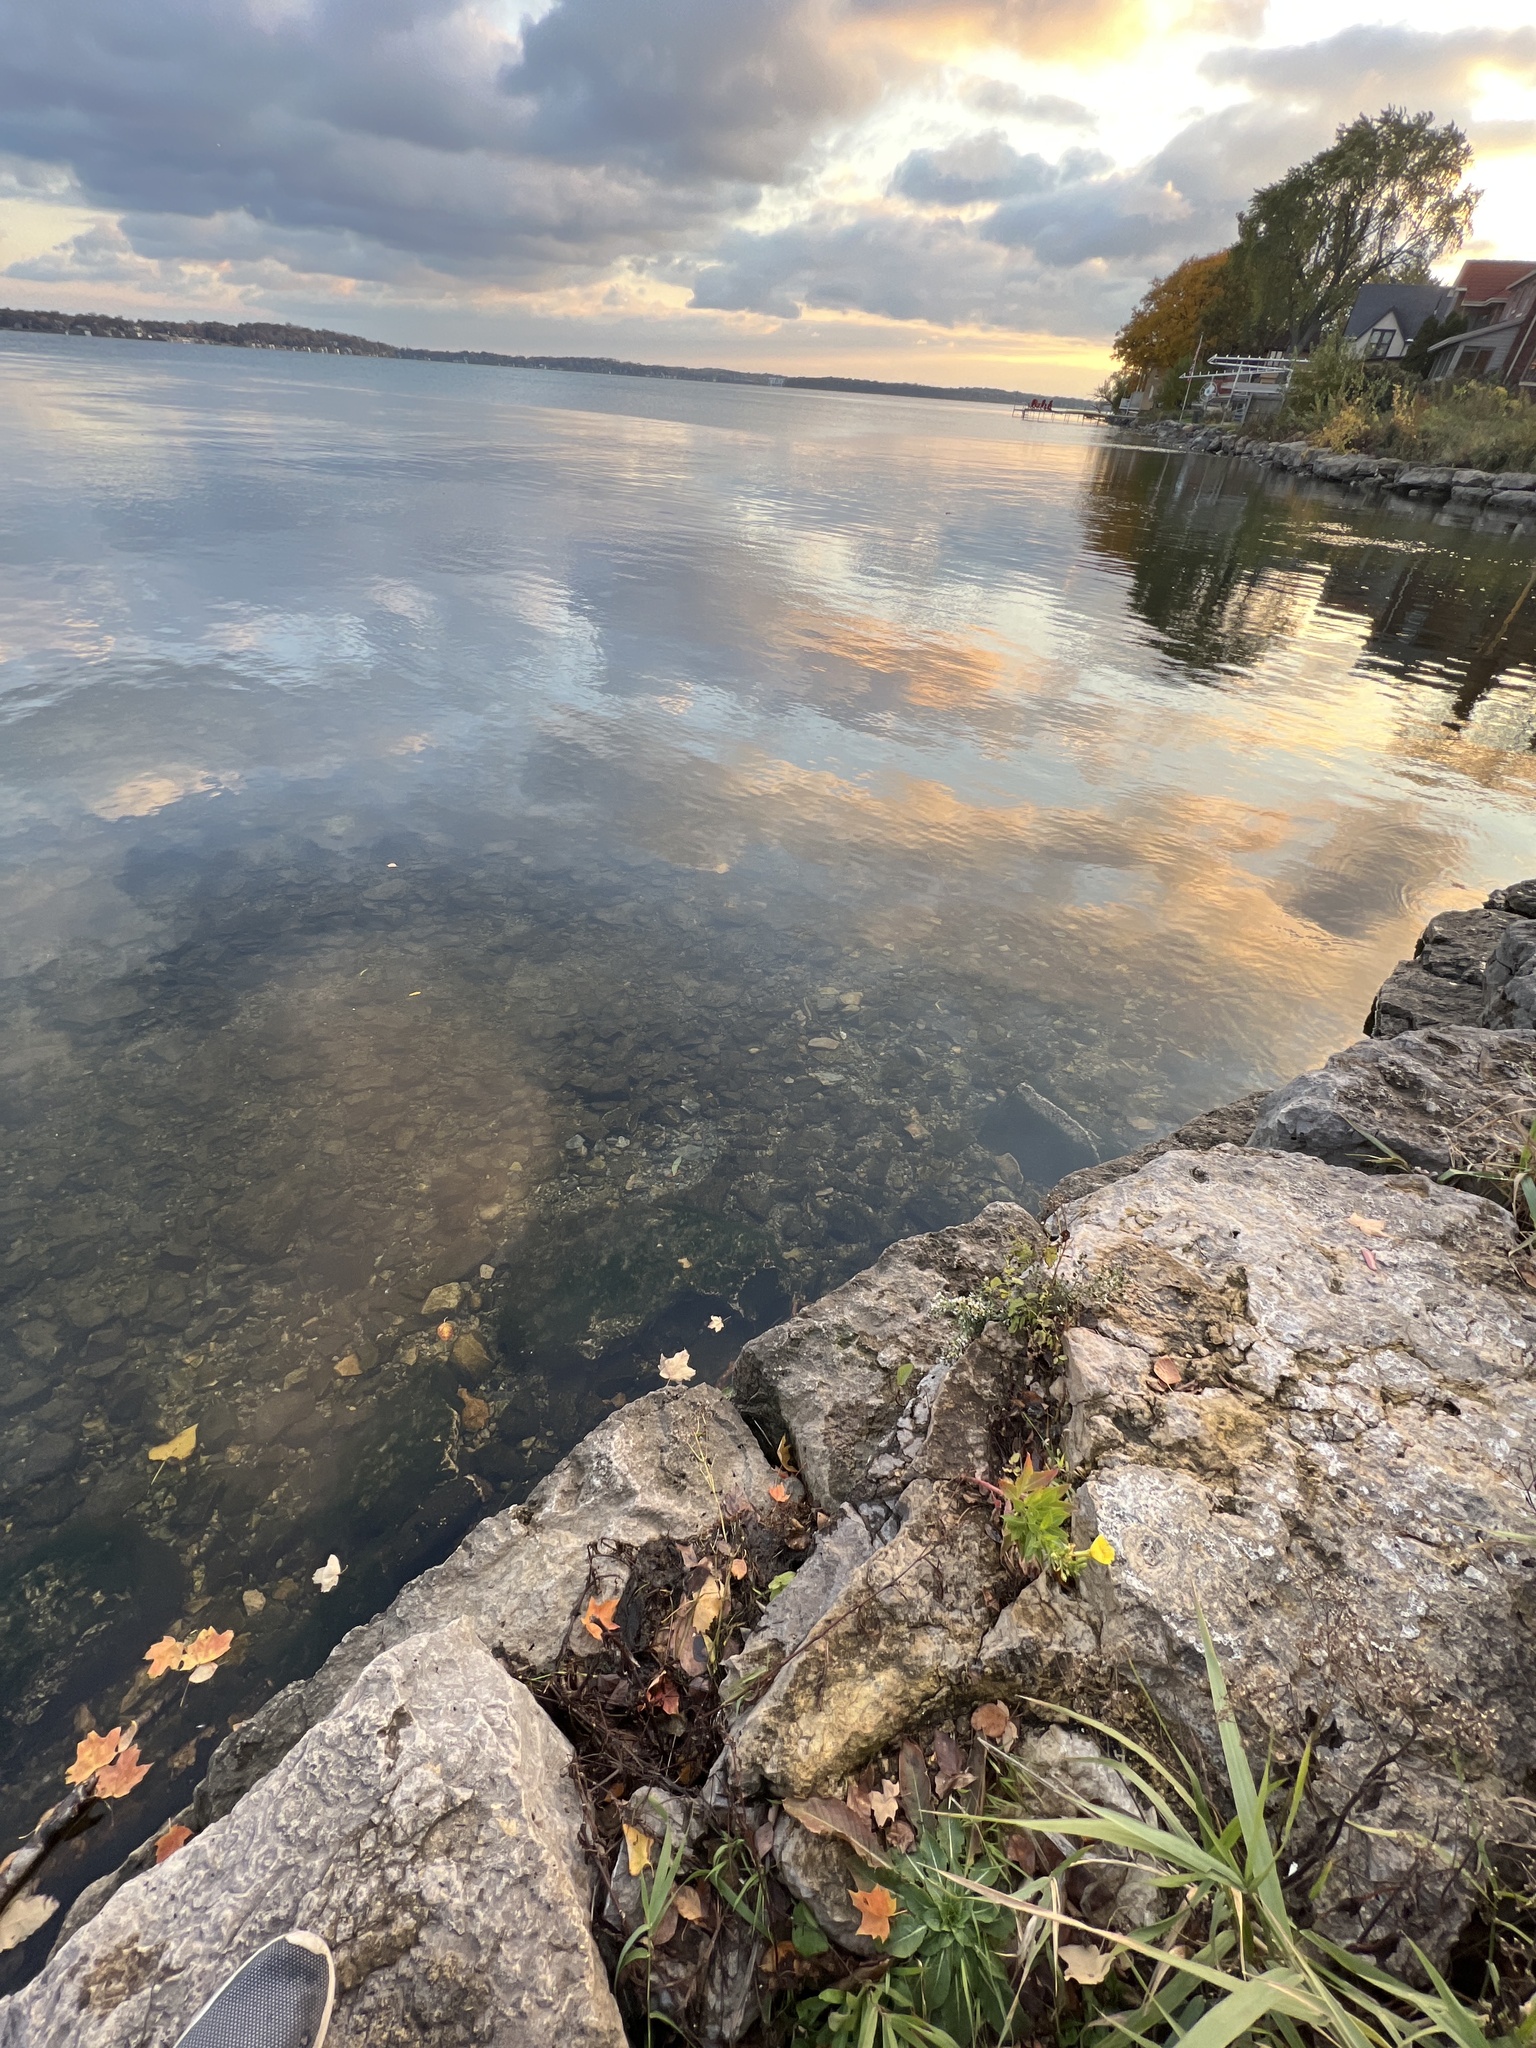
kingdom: Plantae
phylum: Tracheophyta
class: Magnoliopsida
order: Myrtales
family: Onagraceae
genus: Oenothera
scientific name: Oenothera biennis
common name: Common evening-primrose
